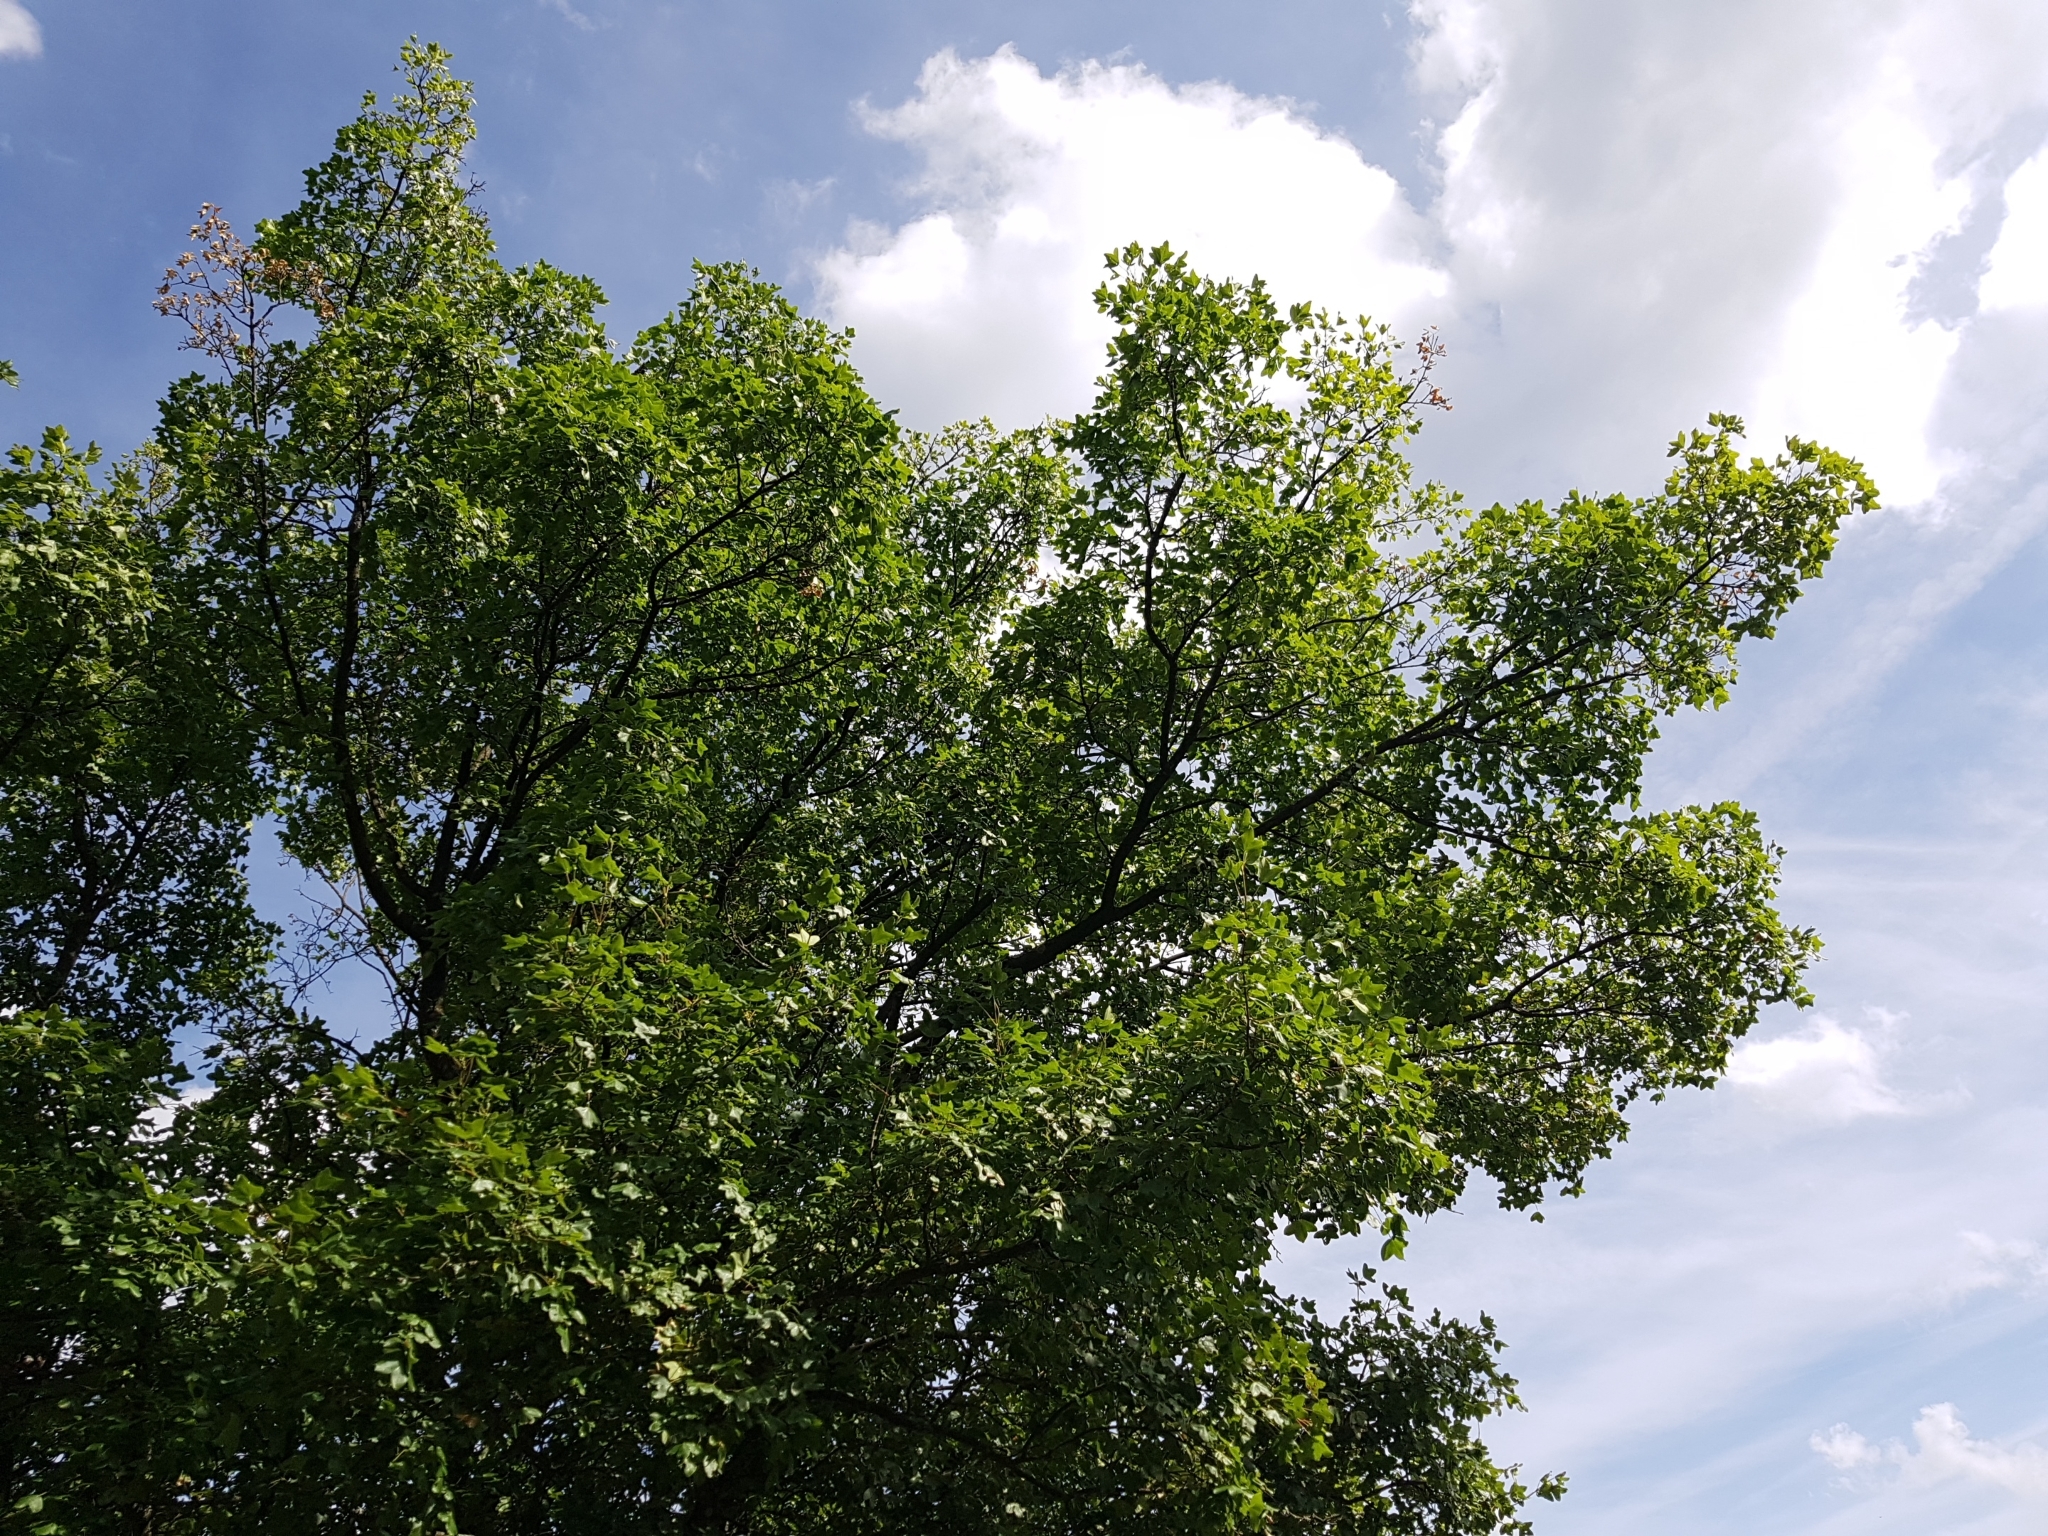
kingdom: Plantae
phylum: Tracheophyta
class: Magnoliopsida
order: Sapindales
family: Sapindaceae
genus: Acer
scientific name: Acer monspessulanum
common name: Montpellier maple
